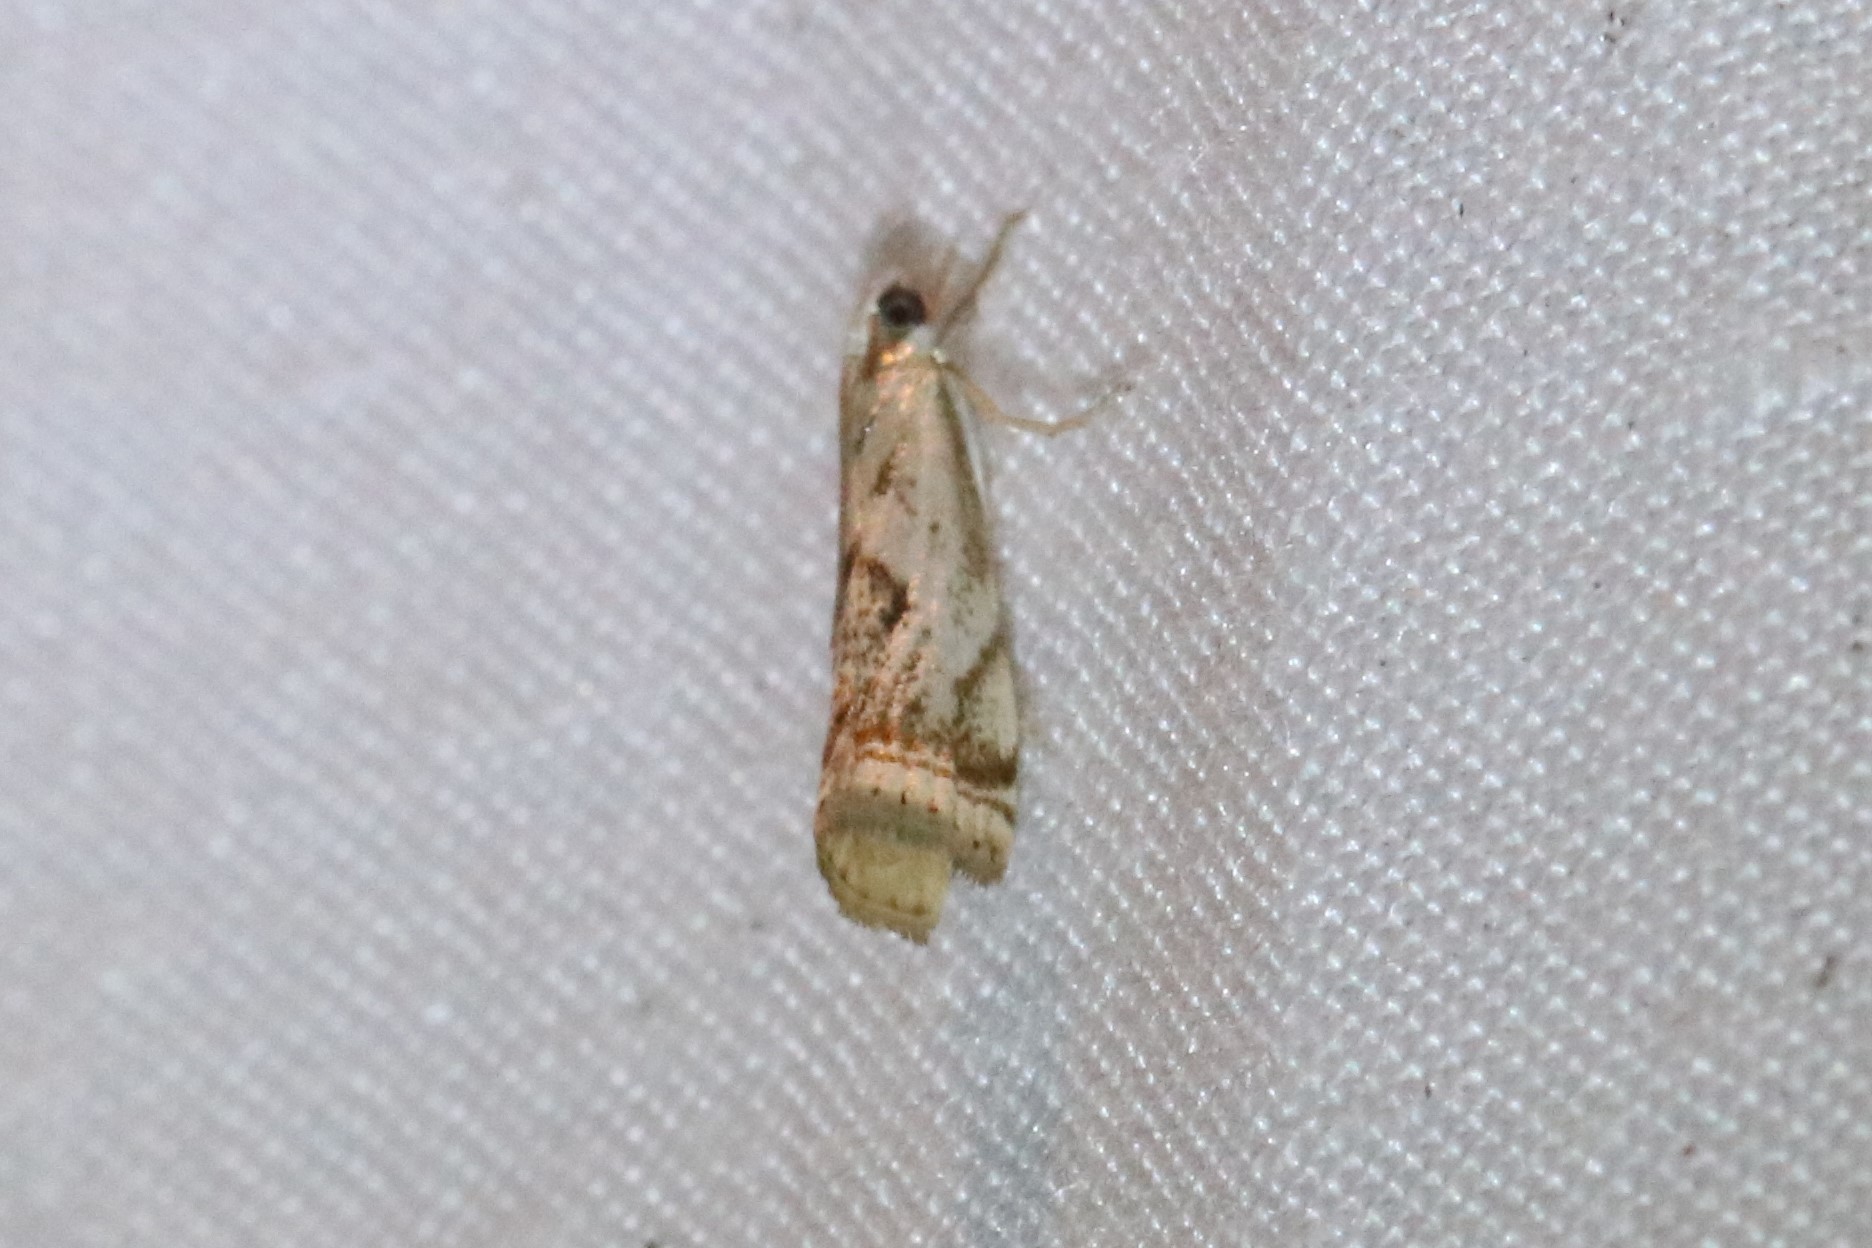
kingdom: Animalia
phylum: Arthropoda
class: Insecta
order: Lepidoptera
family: Crambidae
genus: Microcrambus
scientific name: Microcrambus elegans
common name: Elegant grass-veneer
